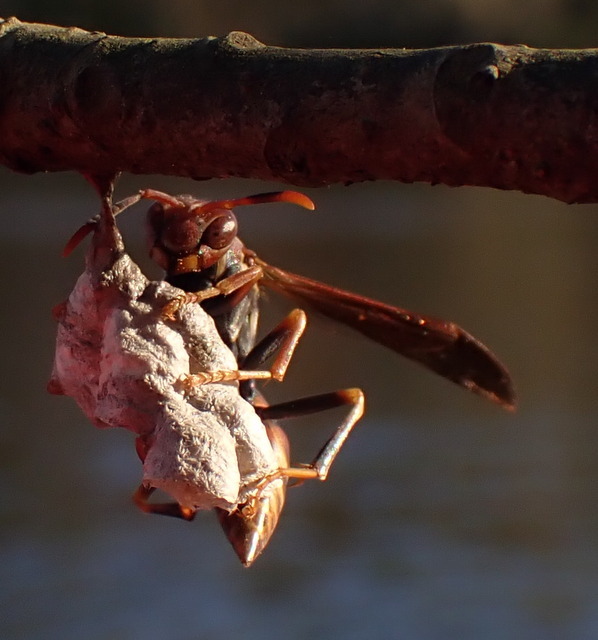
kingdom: Animalia
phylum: Arthropoda
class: Insecta
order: Hymenoptera
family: Eumenidae
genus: Polistes
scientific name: Polistes annularis
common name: Ringed paper wasp
